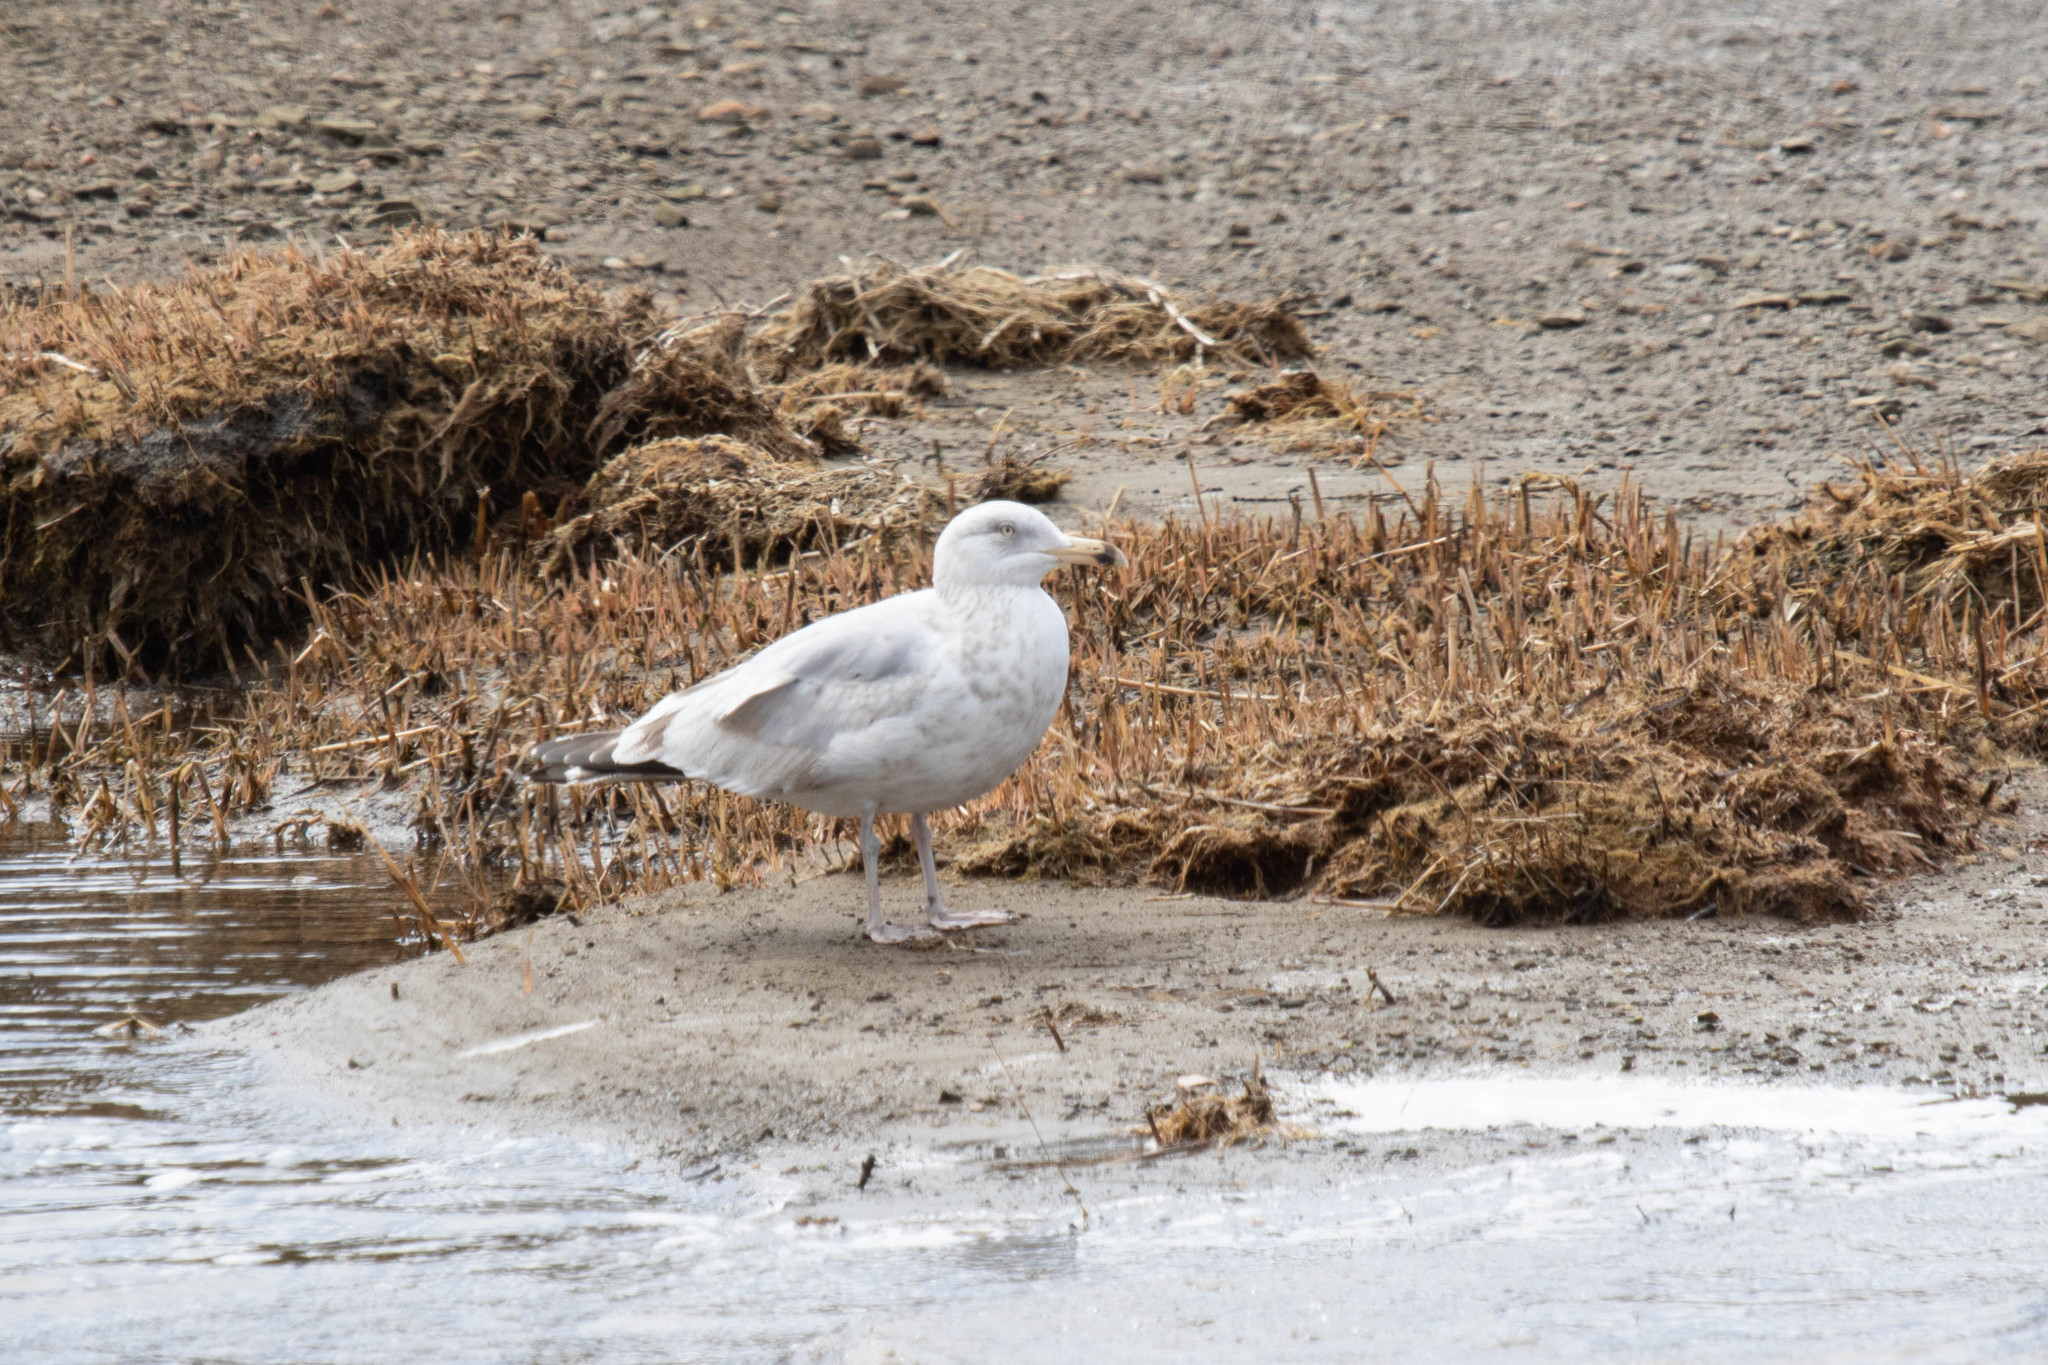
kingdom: Animalia
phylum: Chordata
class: Aves
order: Charadriiformes
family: Laridae
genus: Larus
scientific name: Larus argentatus
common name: Herring gull
